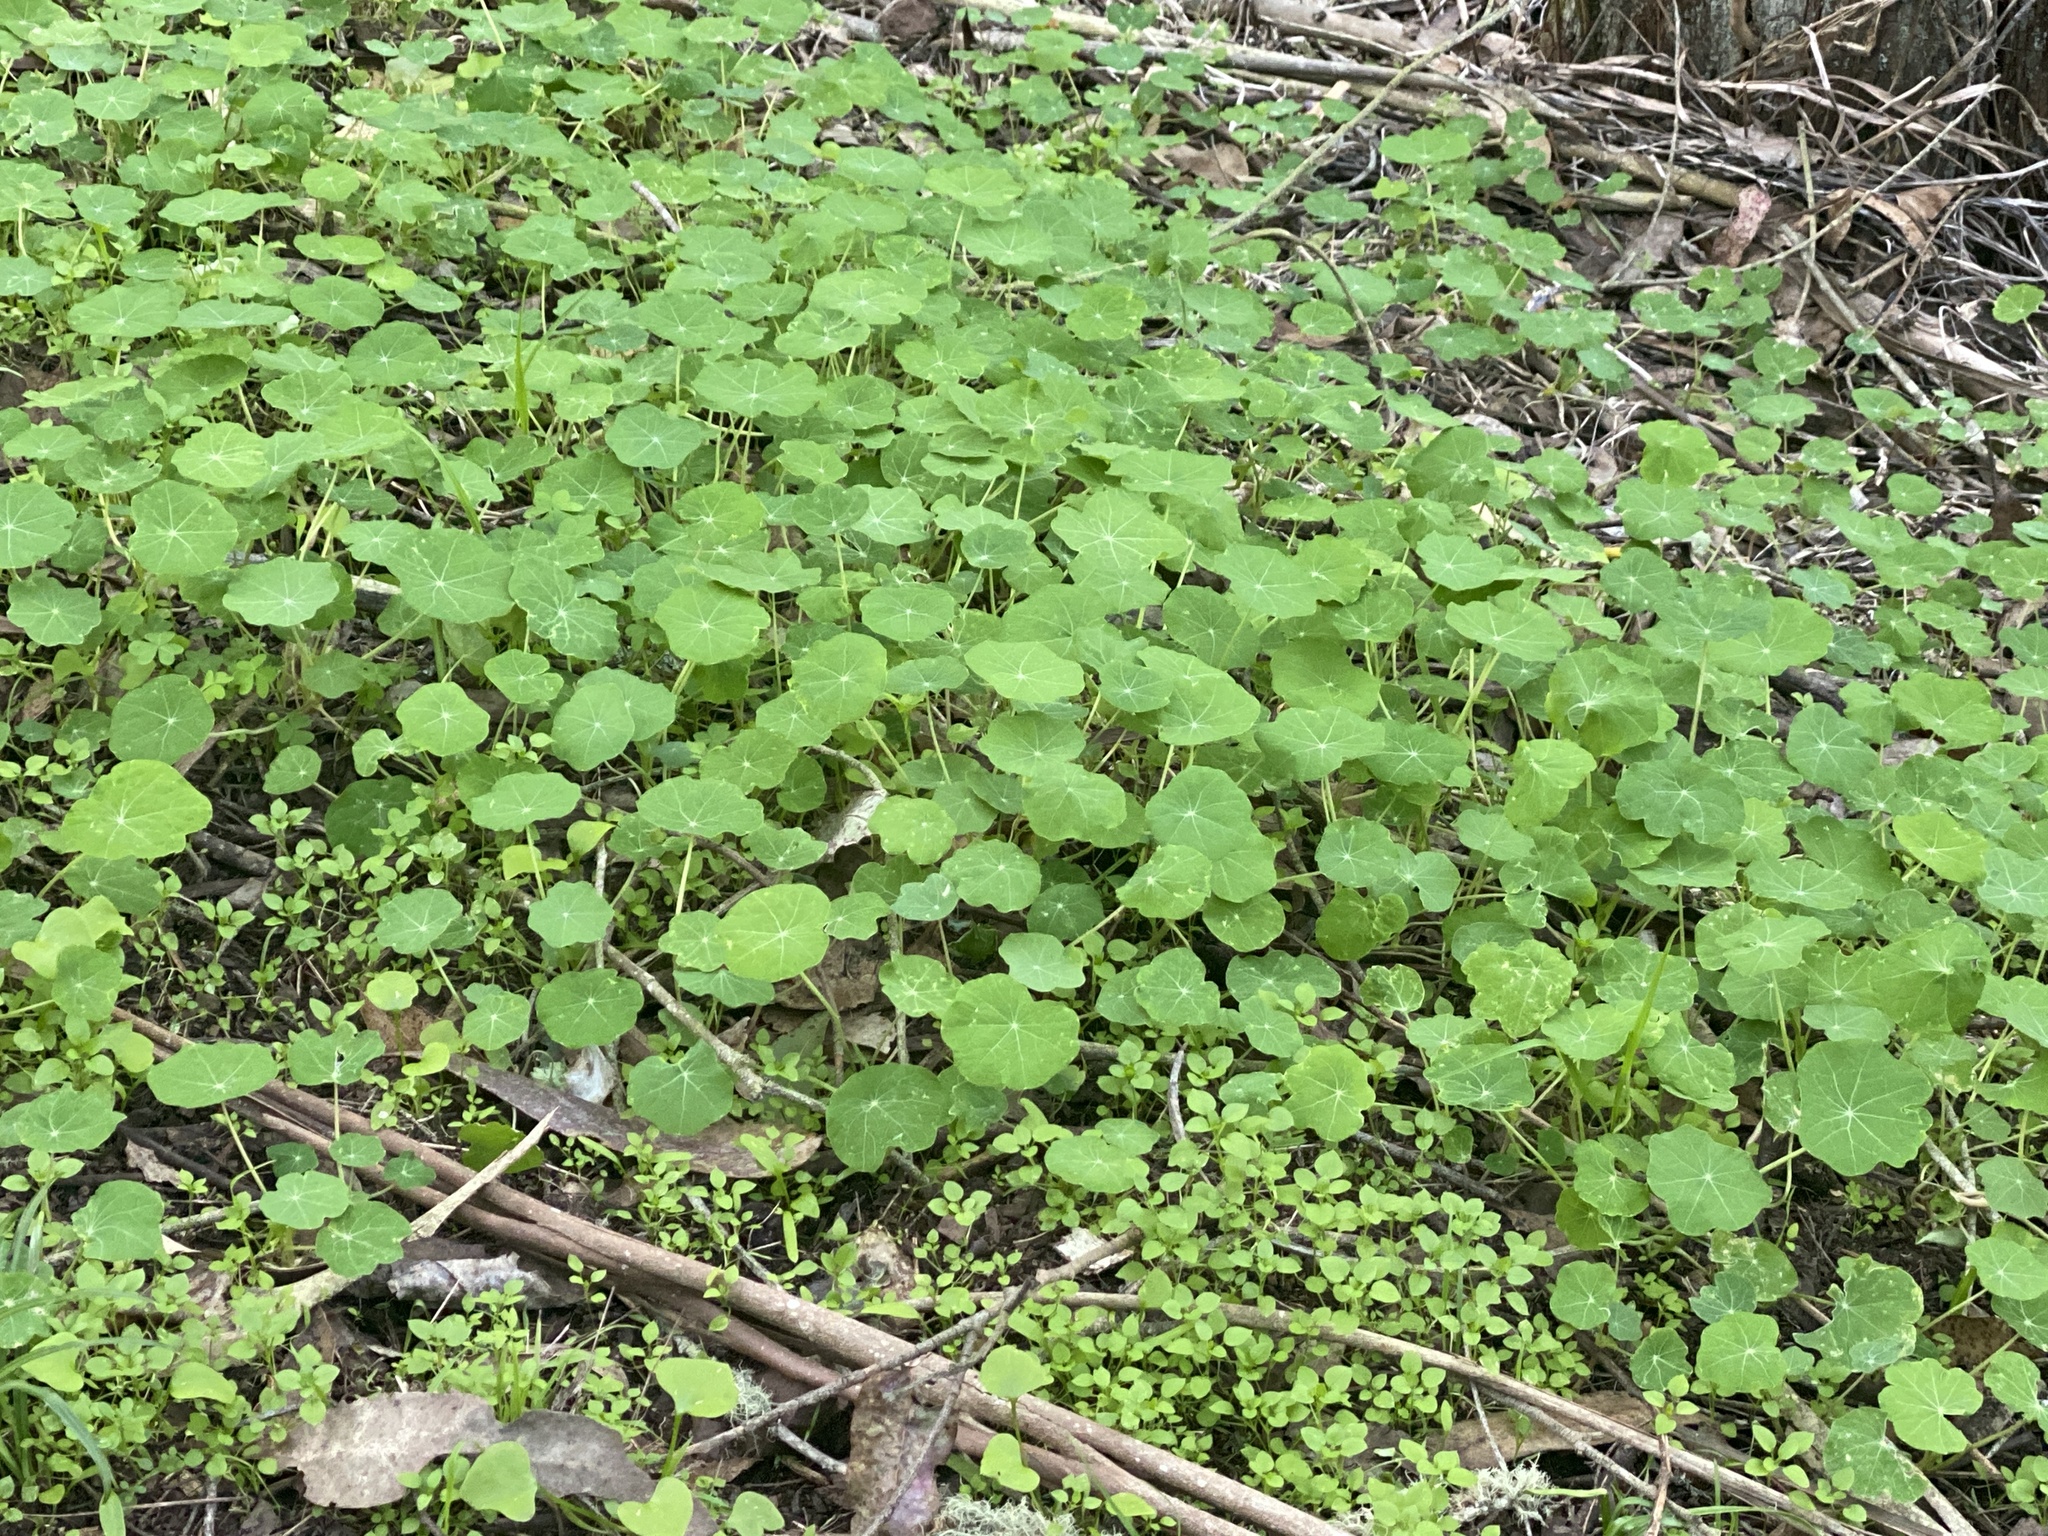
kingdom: Plantae
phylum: Tracheophyta
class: Magnoliopsida
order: Brassicales
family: Tropaeolaceae
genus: Tropaeolum
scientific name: Tropaeolum majus
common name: Nasturtium
